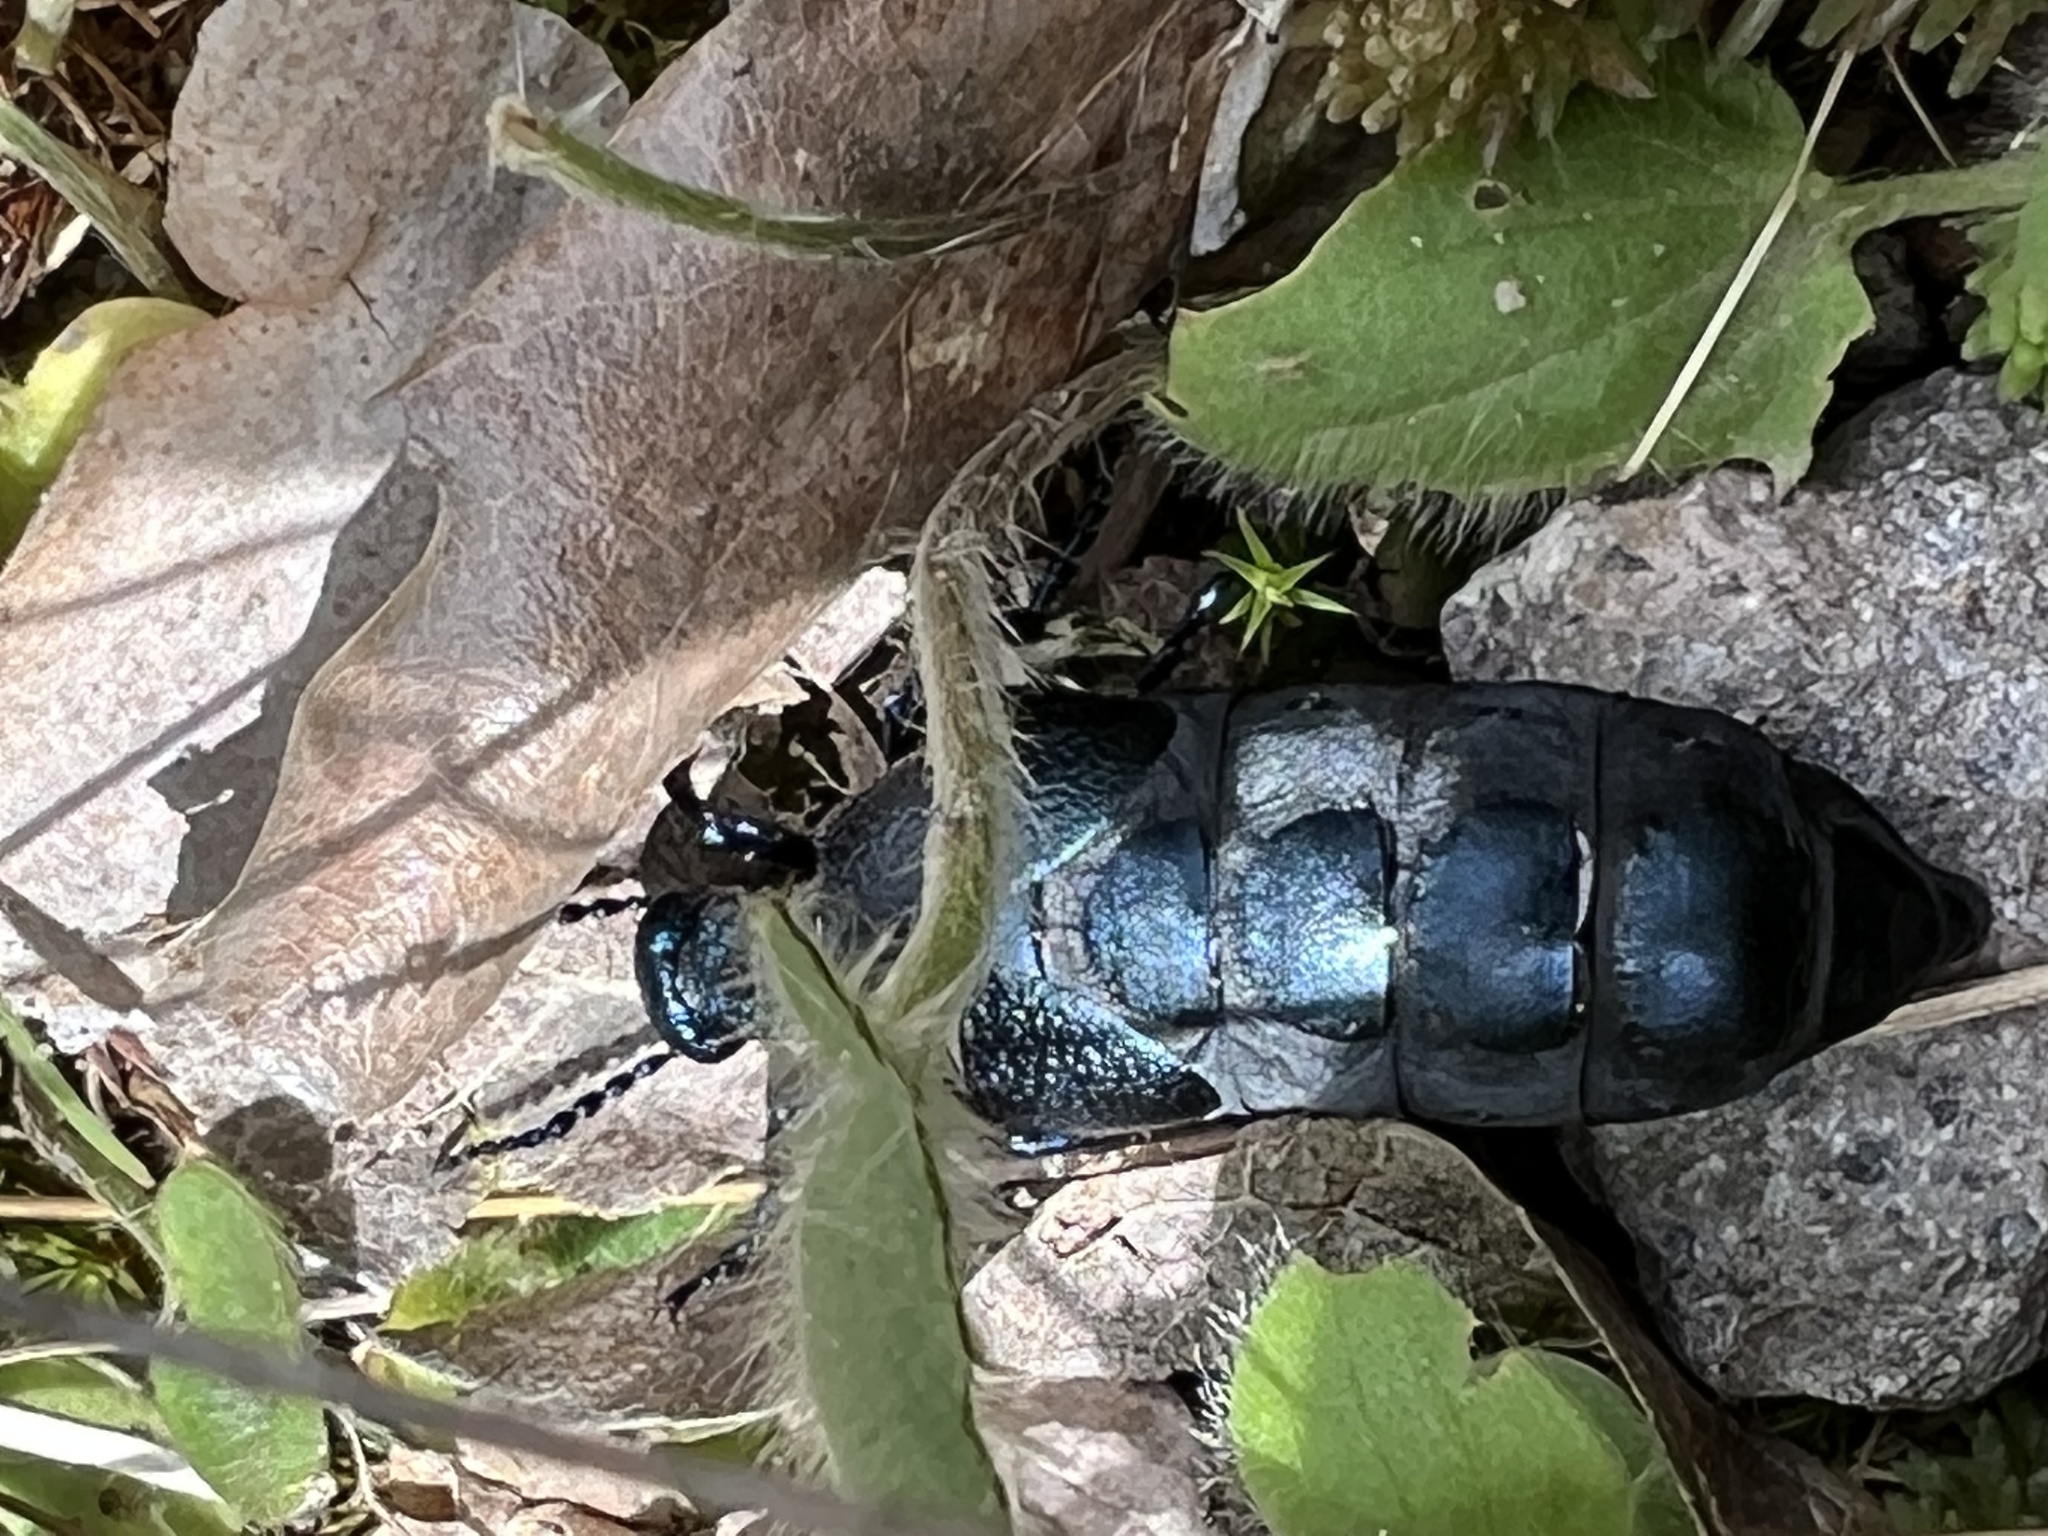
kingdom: Animalia
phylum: Arthropoda
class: Insecta
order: Coleoptera
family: Meloidae
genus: Meloe
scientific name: Meloe proscarabaeus
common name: Black oil-beetle
